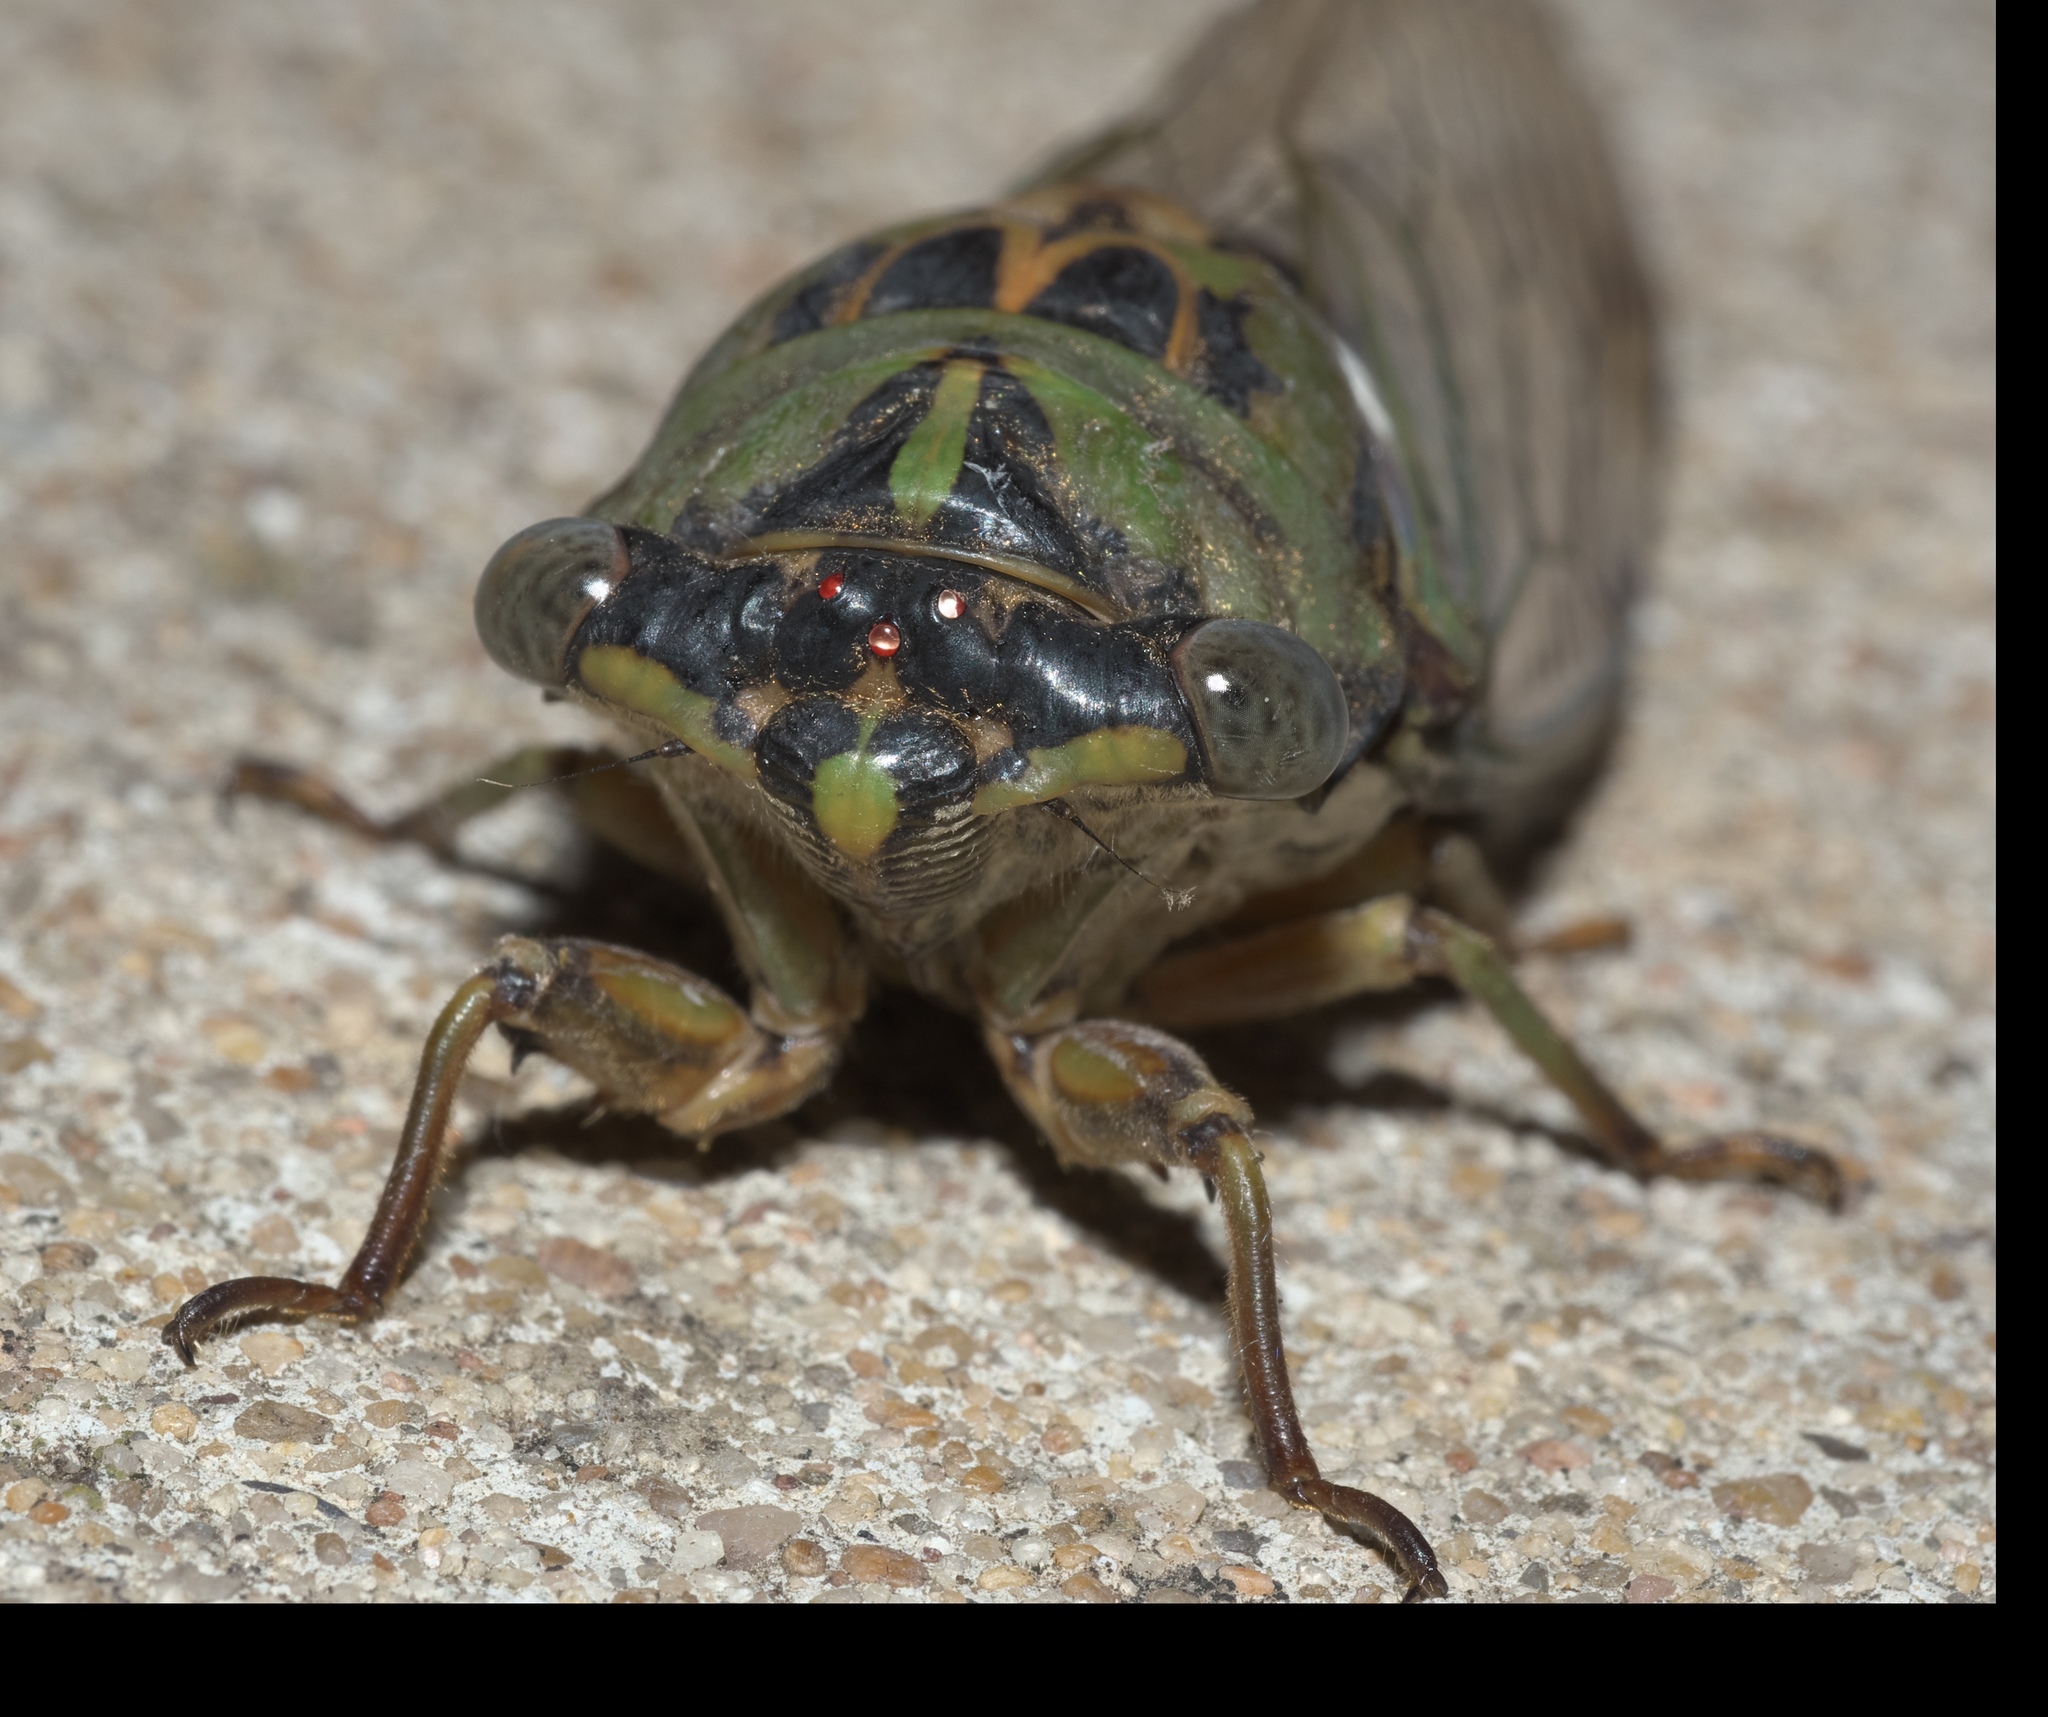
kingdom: Animalia
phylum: Arthropoda
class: Insecta
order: Hemiptera
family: Cicadidae
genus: Neotibicen
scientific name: Neotibicen pruinosus
